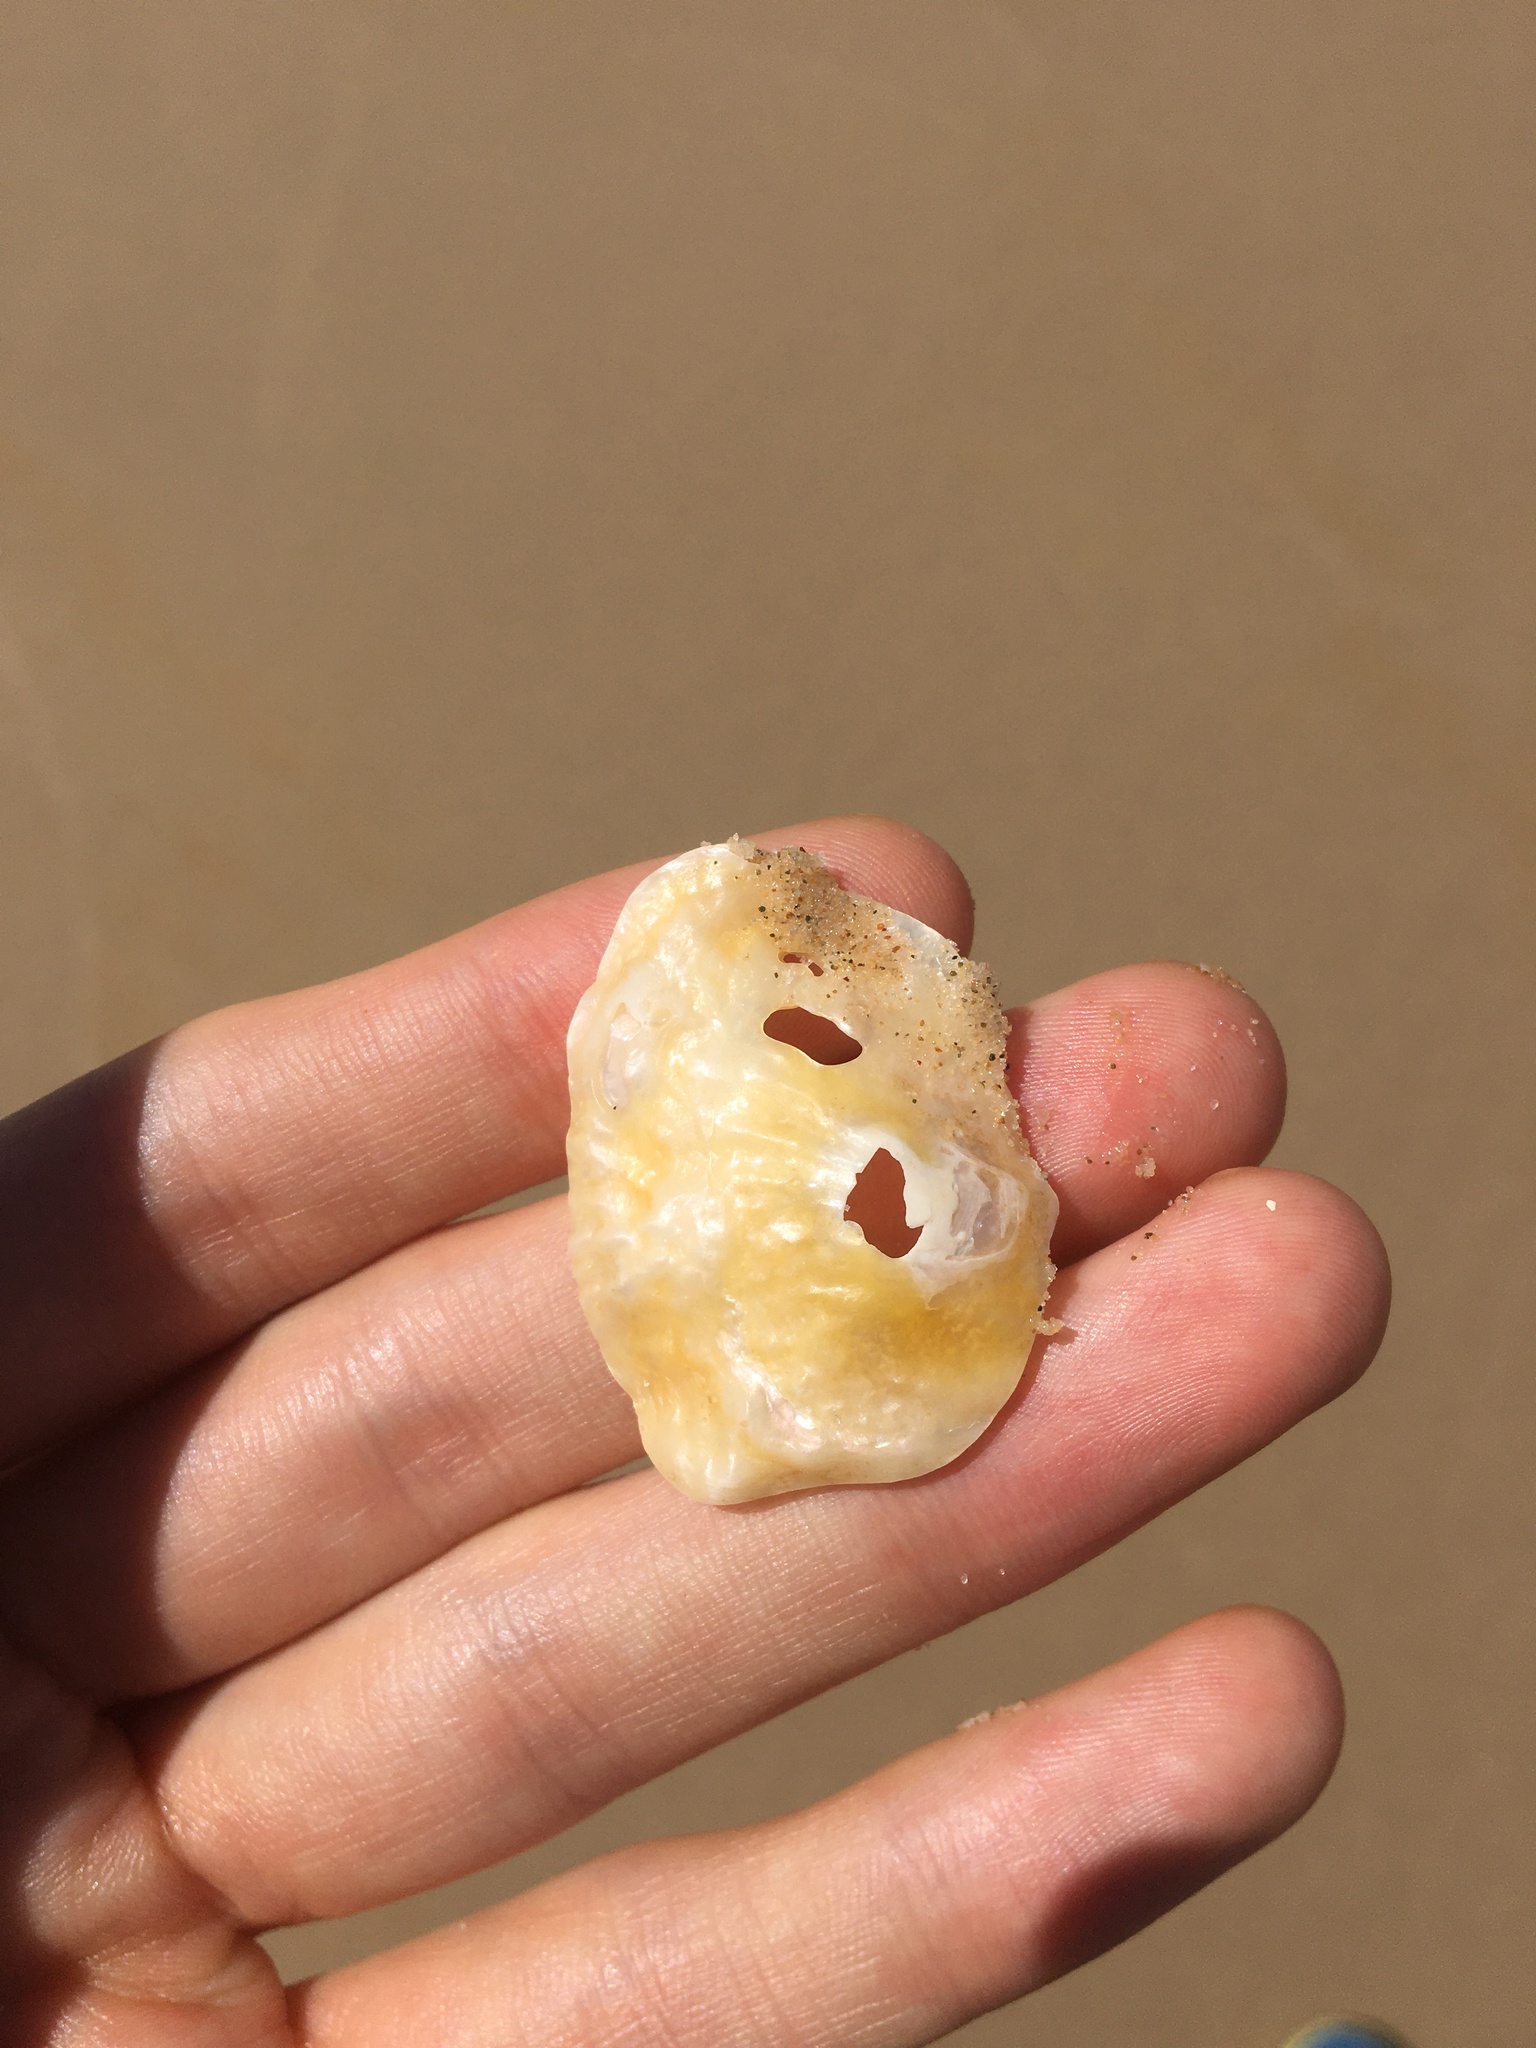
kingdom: Animalia
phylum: Mollusca
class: Bivalvia
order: Pectinida
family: Anomiidae
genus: Anomia
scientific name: Anomia trigonopsis
